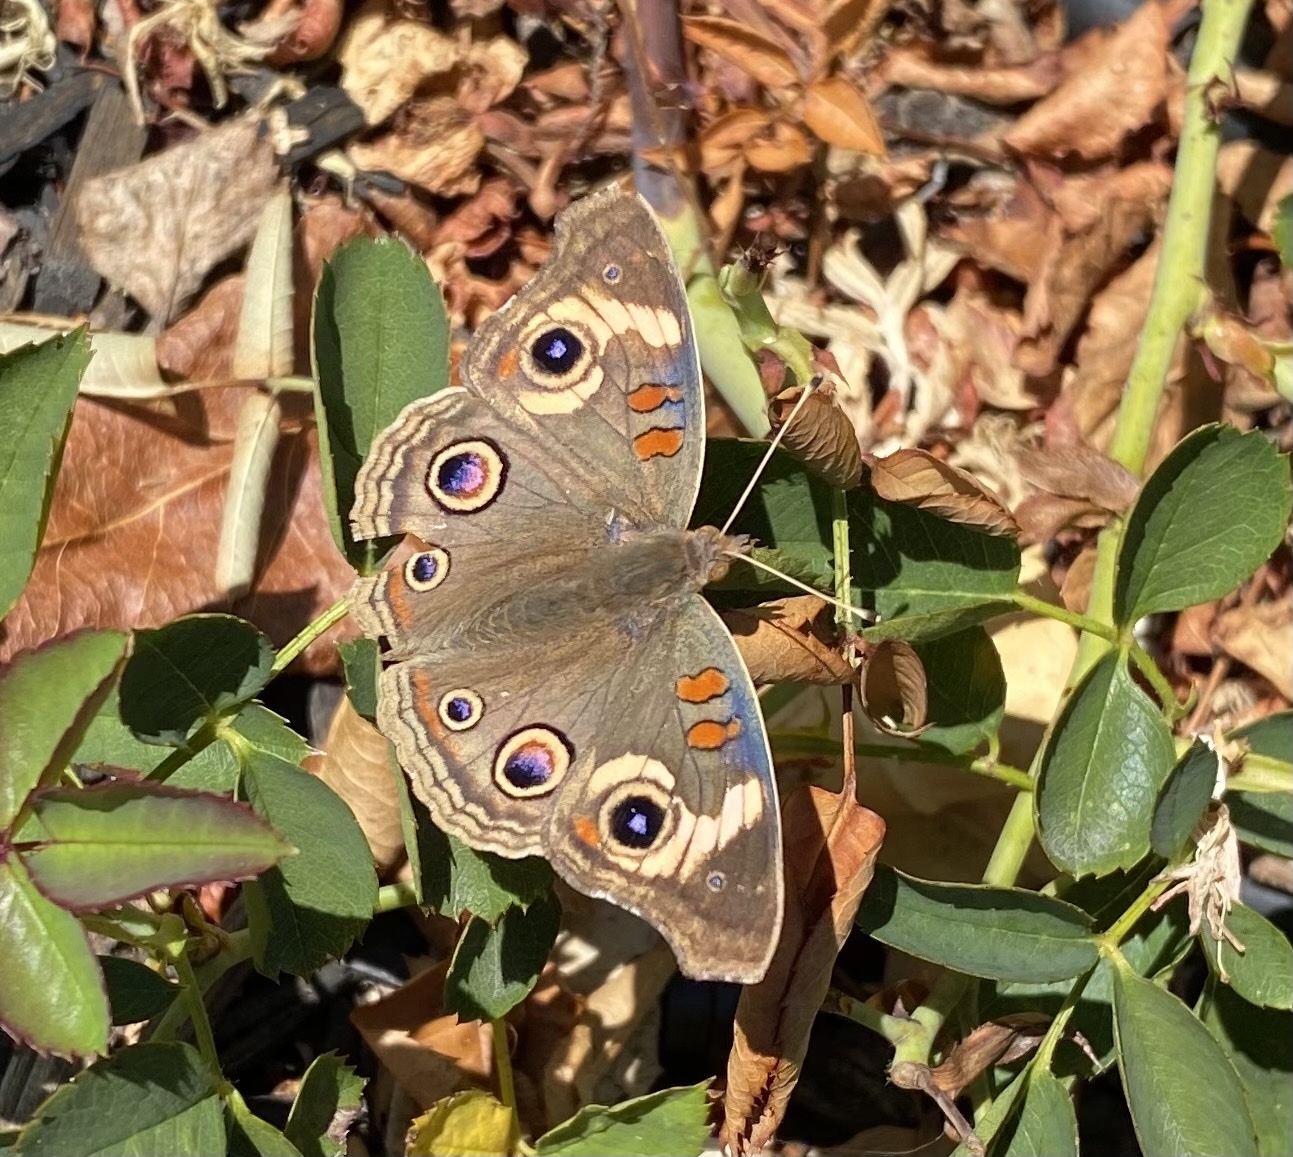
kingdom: Animalia
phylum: Arthropoda
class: Insecta
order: Lepidoptera
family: Nymphalidae
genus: Junonia
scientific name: Junonia grisea
